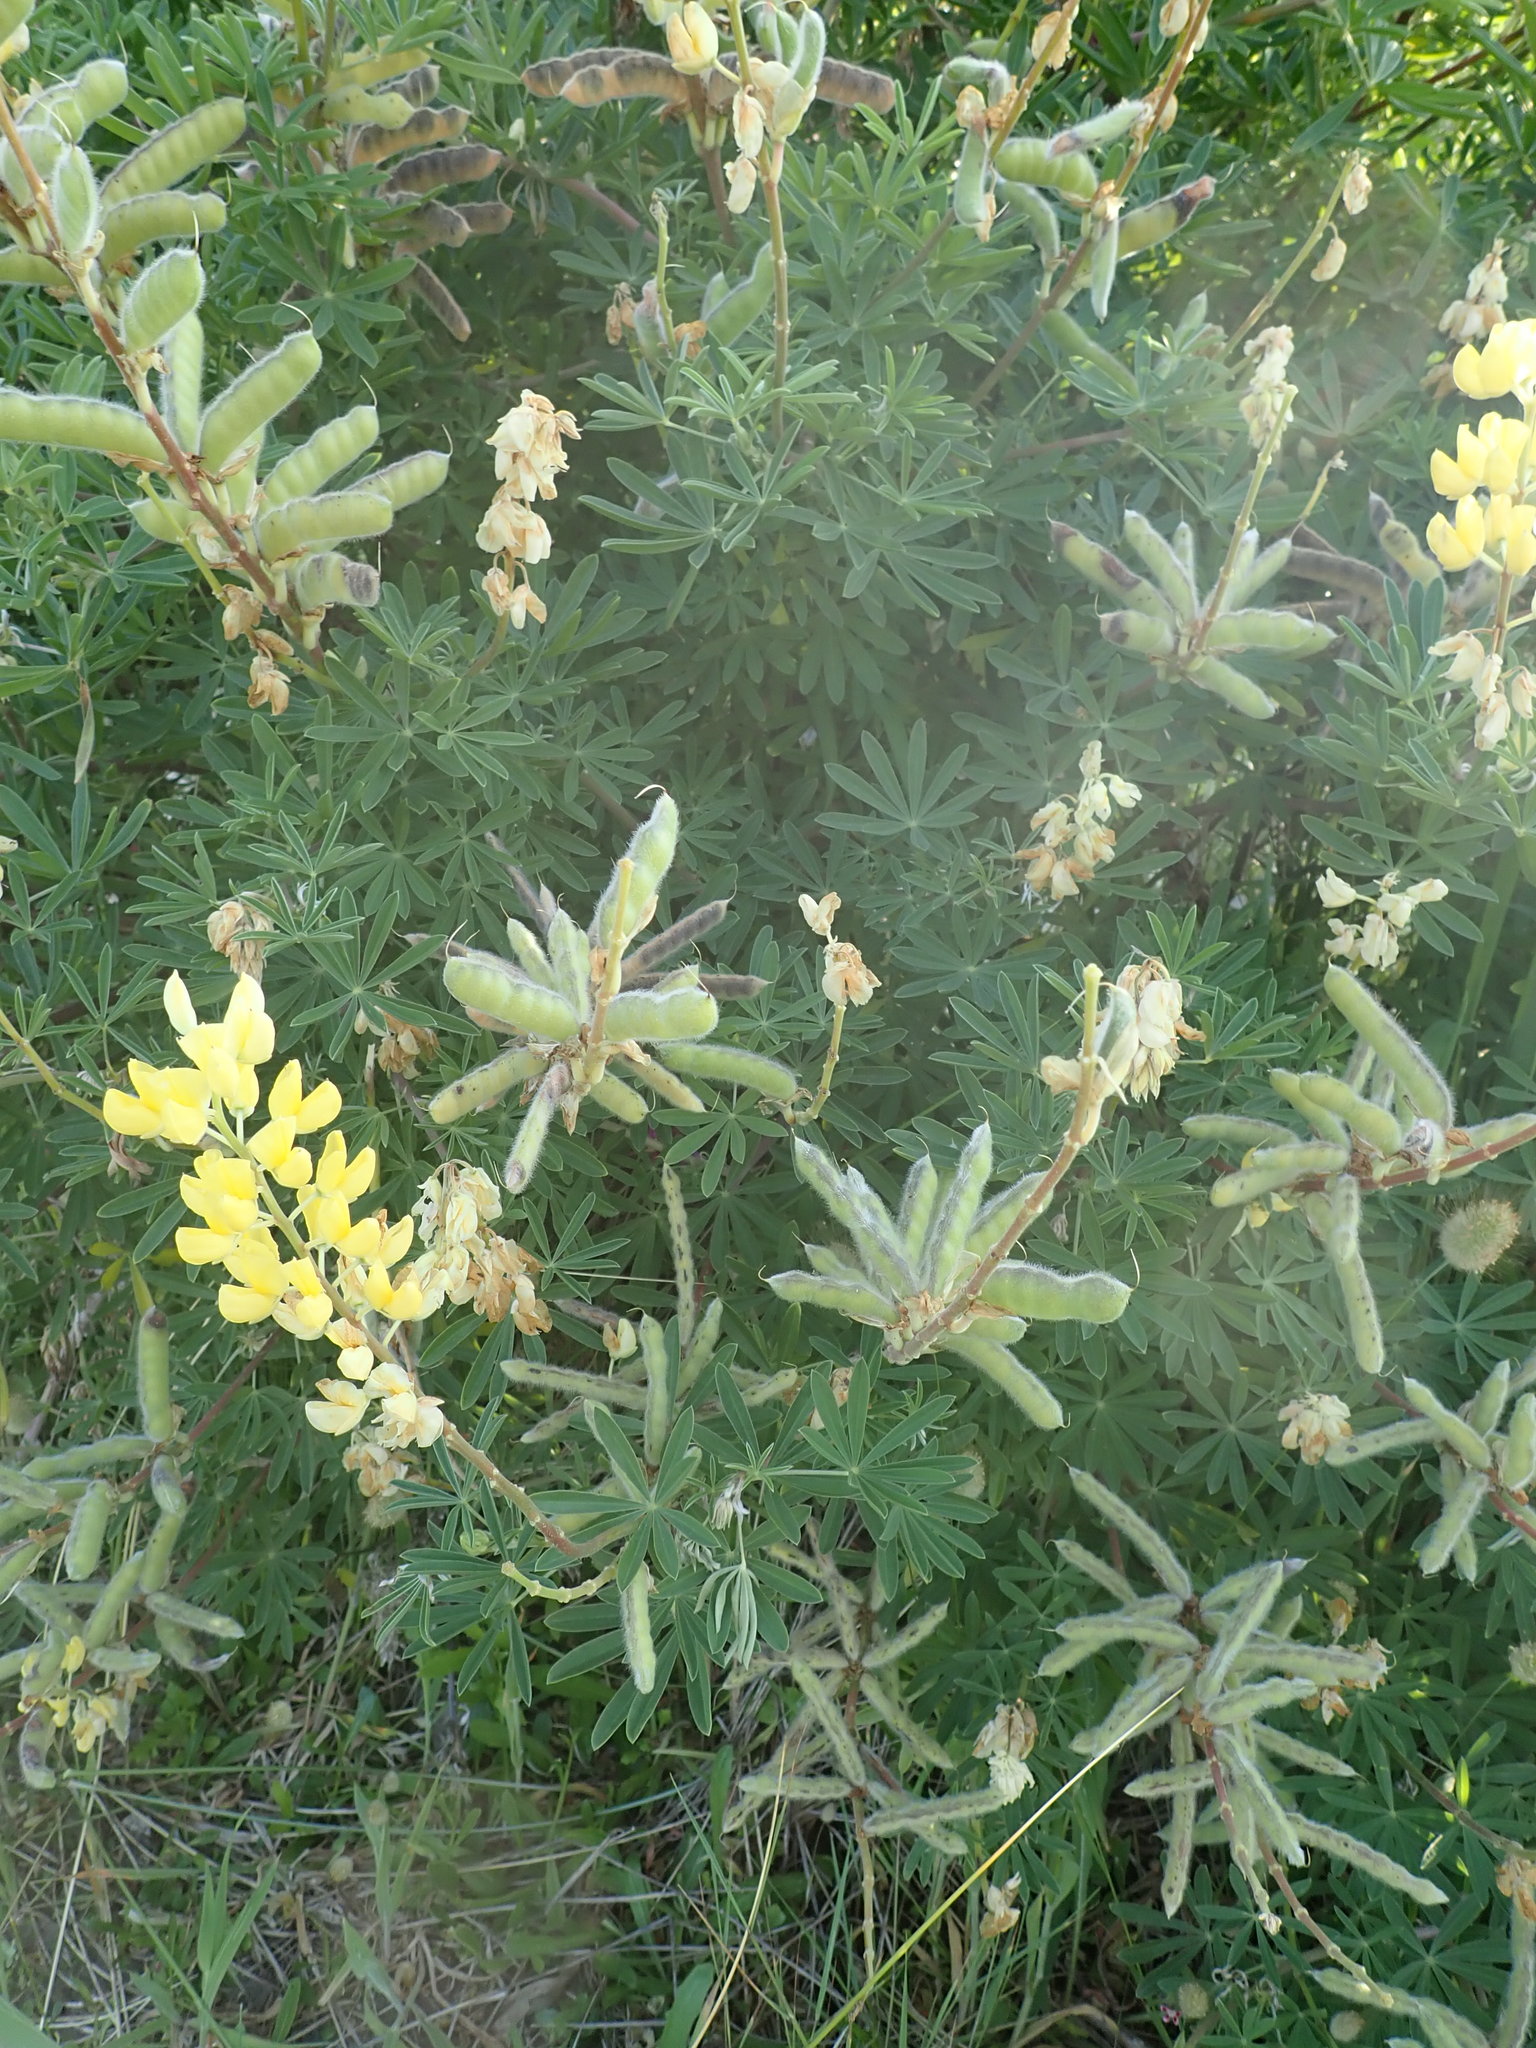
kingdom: Plantae
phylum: Tracheophyta
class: Magnoliopsida
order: Fabales
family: Fabaceae
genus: Lupinus
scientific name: Lupinus arboreus
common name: Yellow bush lupine
